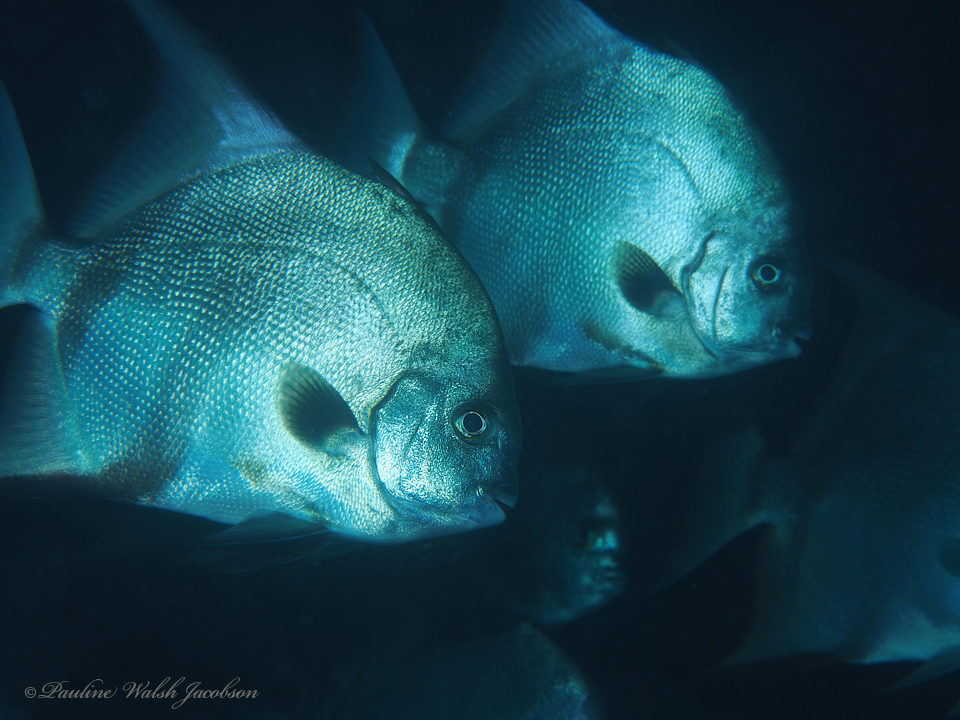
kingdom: Animalia
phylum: Chordata
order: Perciformes
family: Ephippidae
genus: Chaetodipterus
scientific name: Chaetodipterus faber
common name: Ocean cobbler
